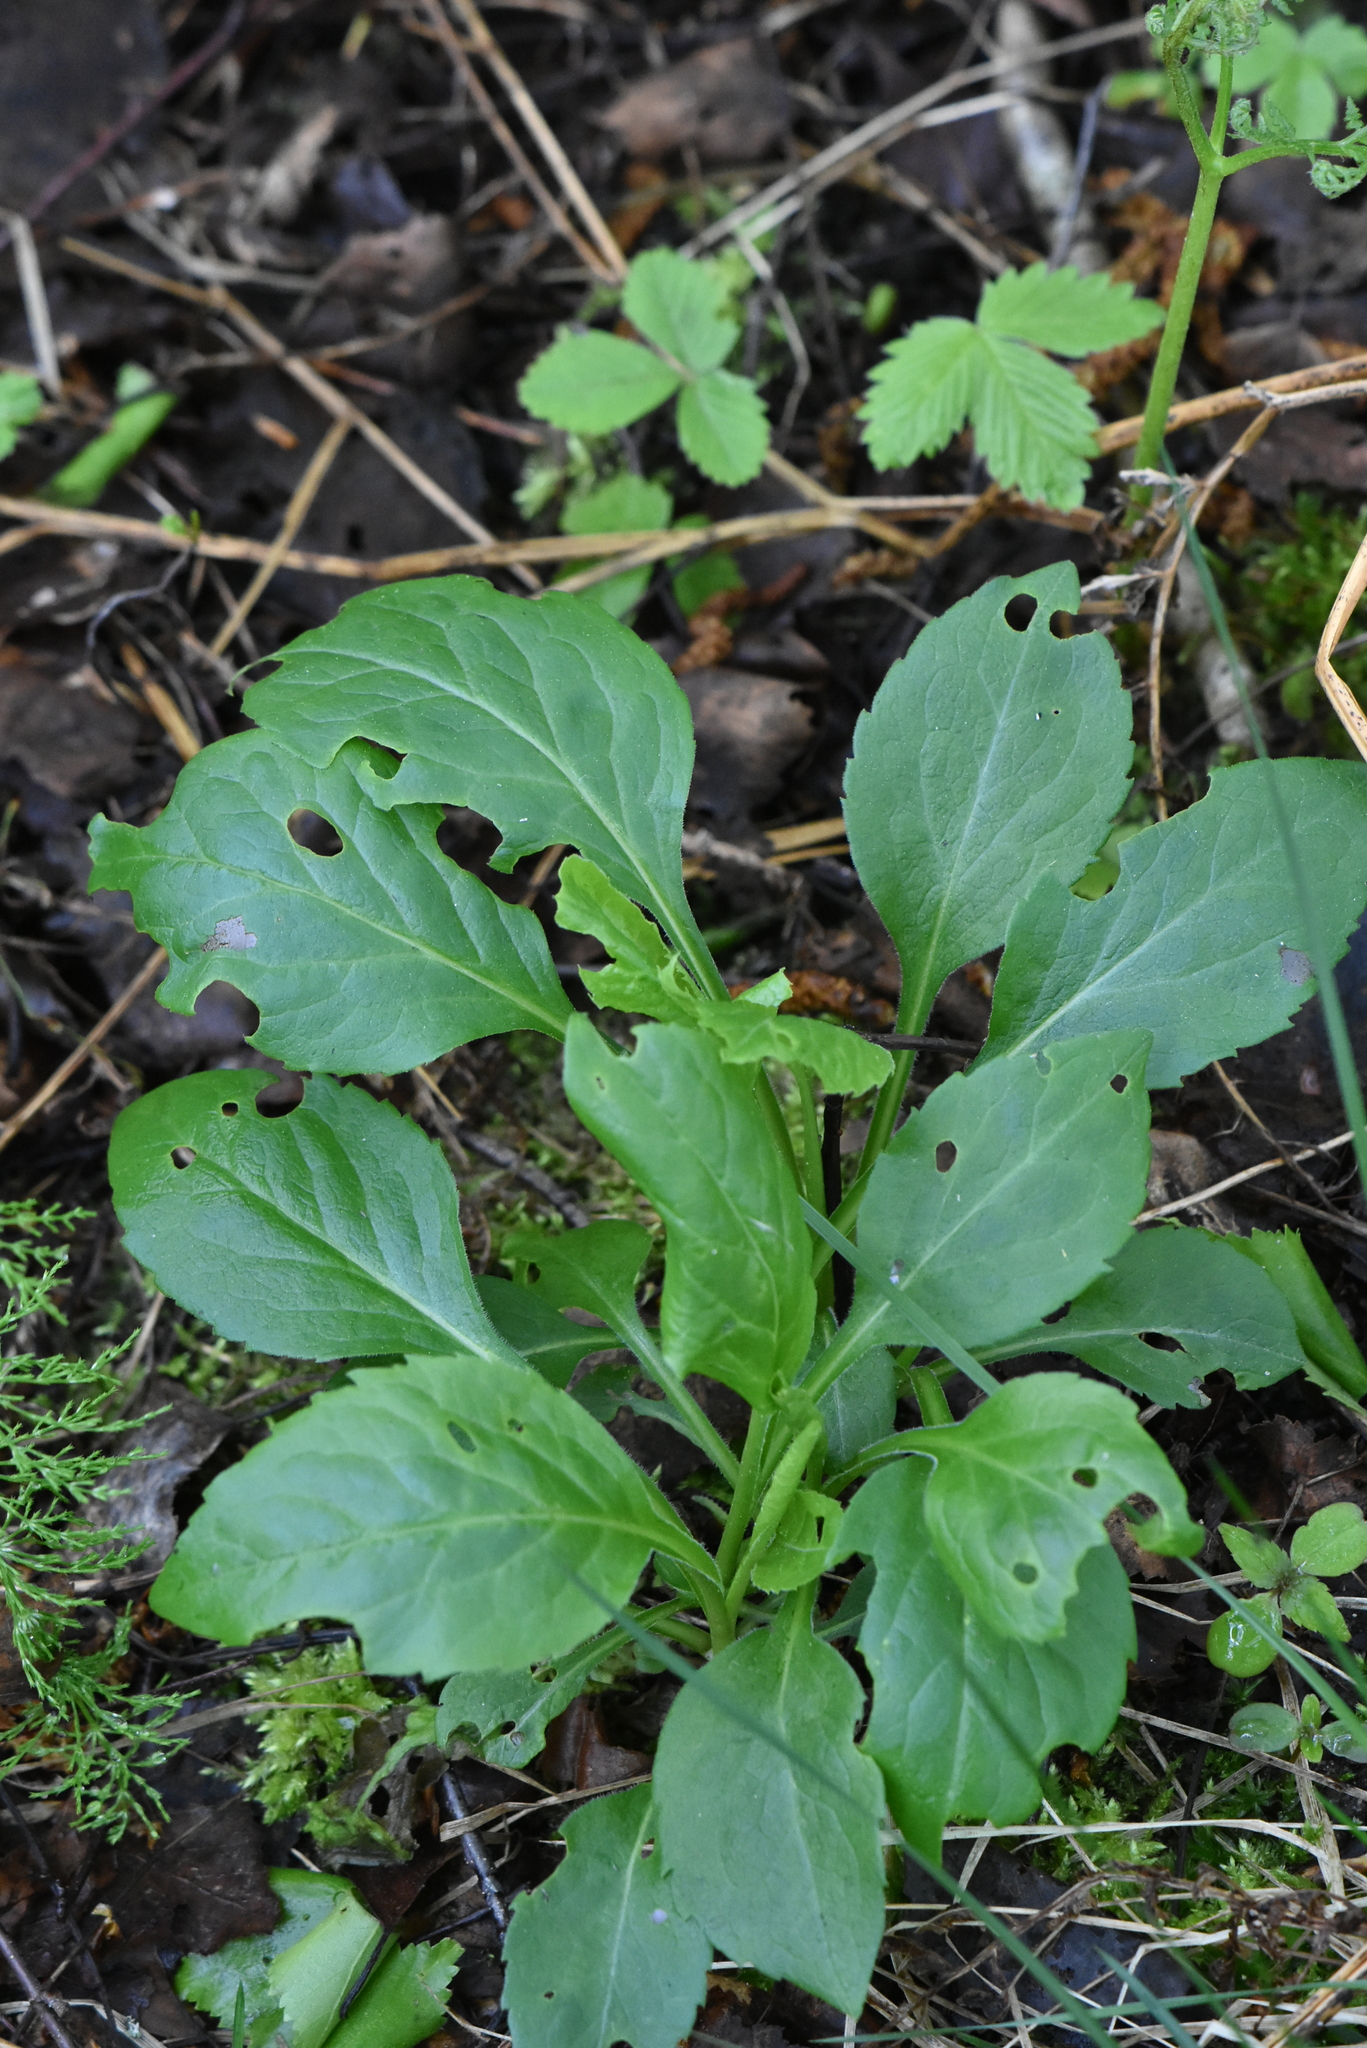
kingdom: Plantae
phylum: Tracheophyta
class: Magnoliopsida
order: Asterales
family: Asteraceae
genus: Solidago
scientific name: Solidago virgaurea
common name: Goldenrod
